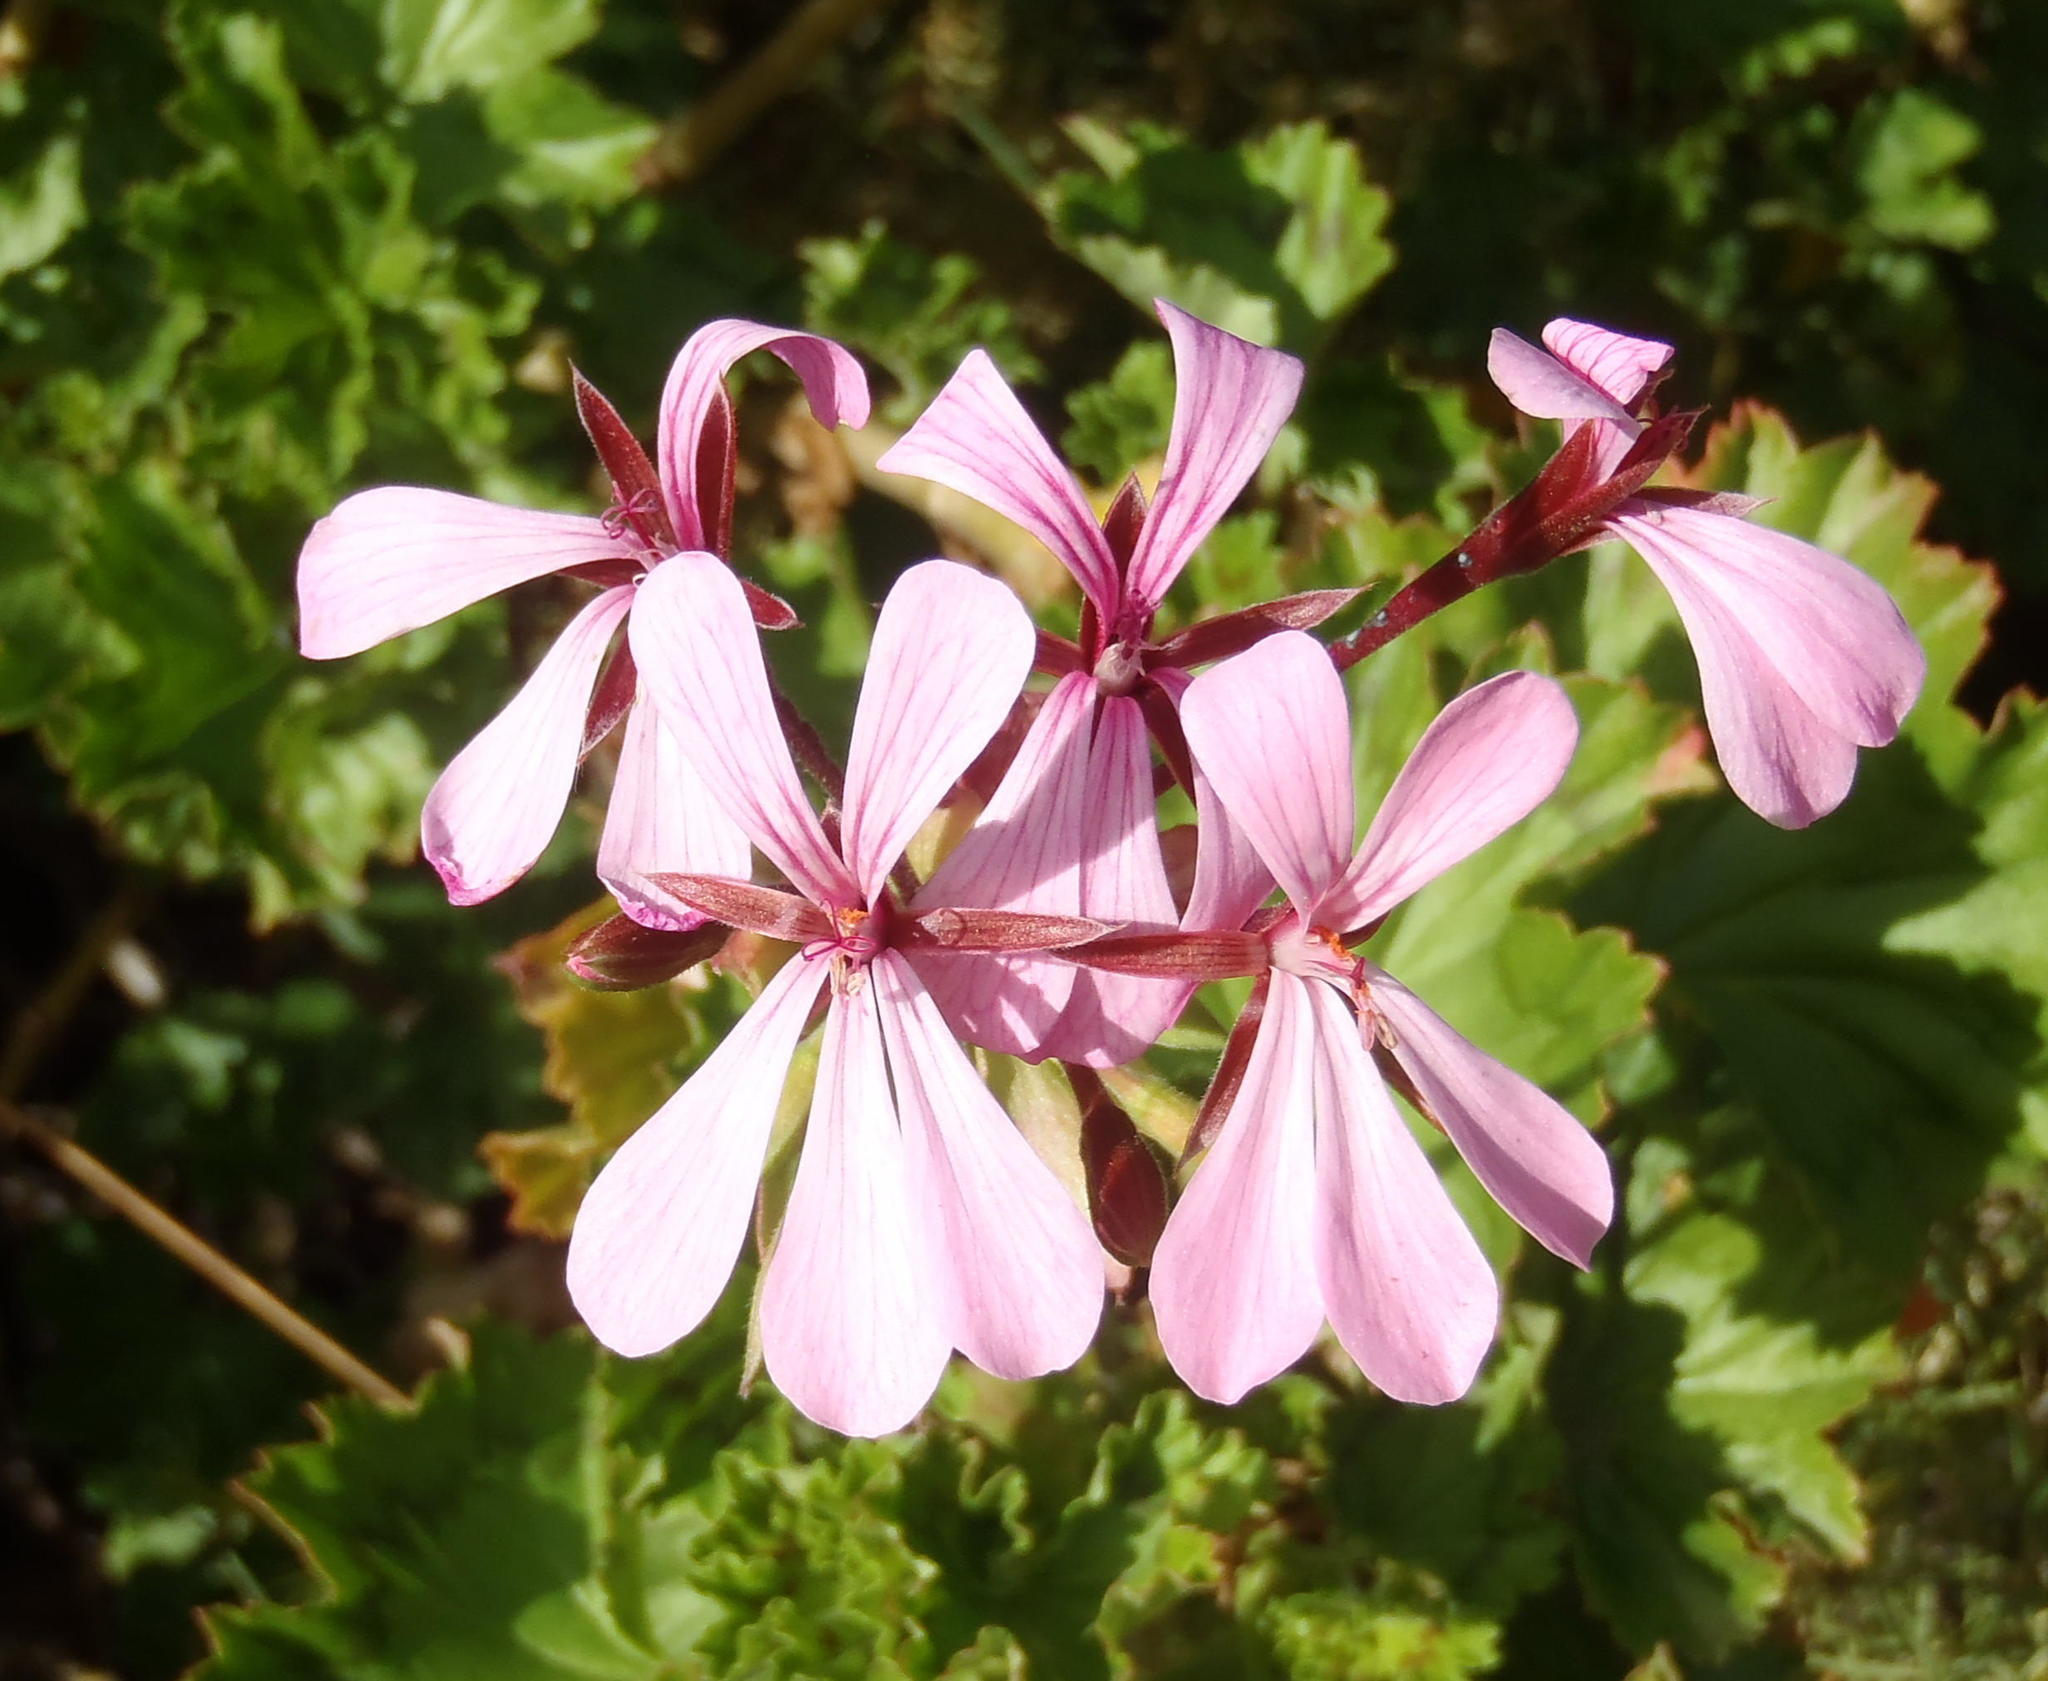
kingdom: Plantae
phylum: Tracheophyta
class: Magnoliopsida
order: Geraniales
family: Geraniaceae
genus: Pelargonium
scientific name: Pelargonium zonale
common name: Horseshoe geranium
